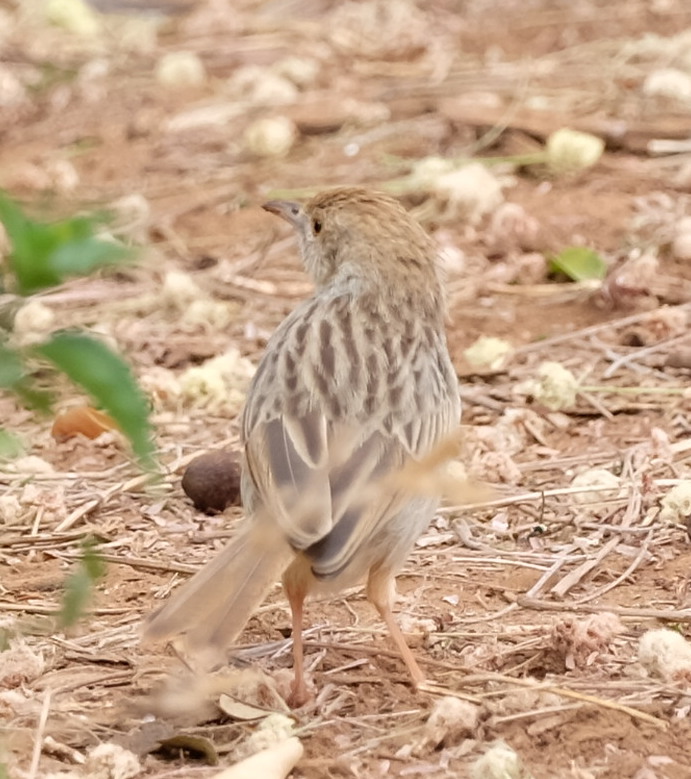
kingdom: Animalia
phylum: Chordata
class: Aves
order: Passeriformes
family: Cisticolidae
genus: Cisticola
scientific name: Cisticola chiniana
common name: Rattling cisticola
